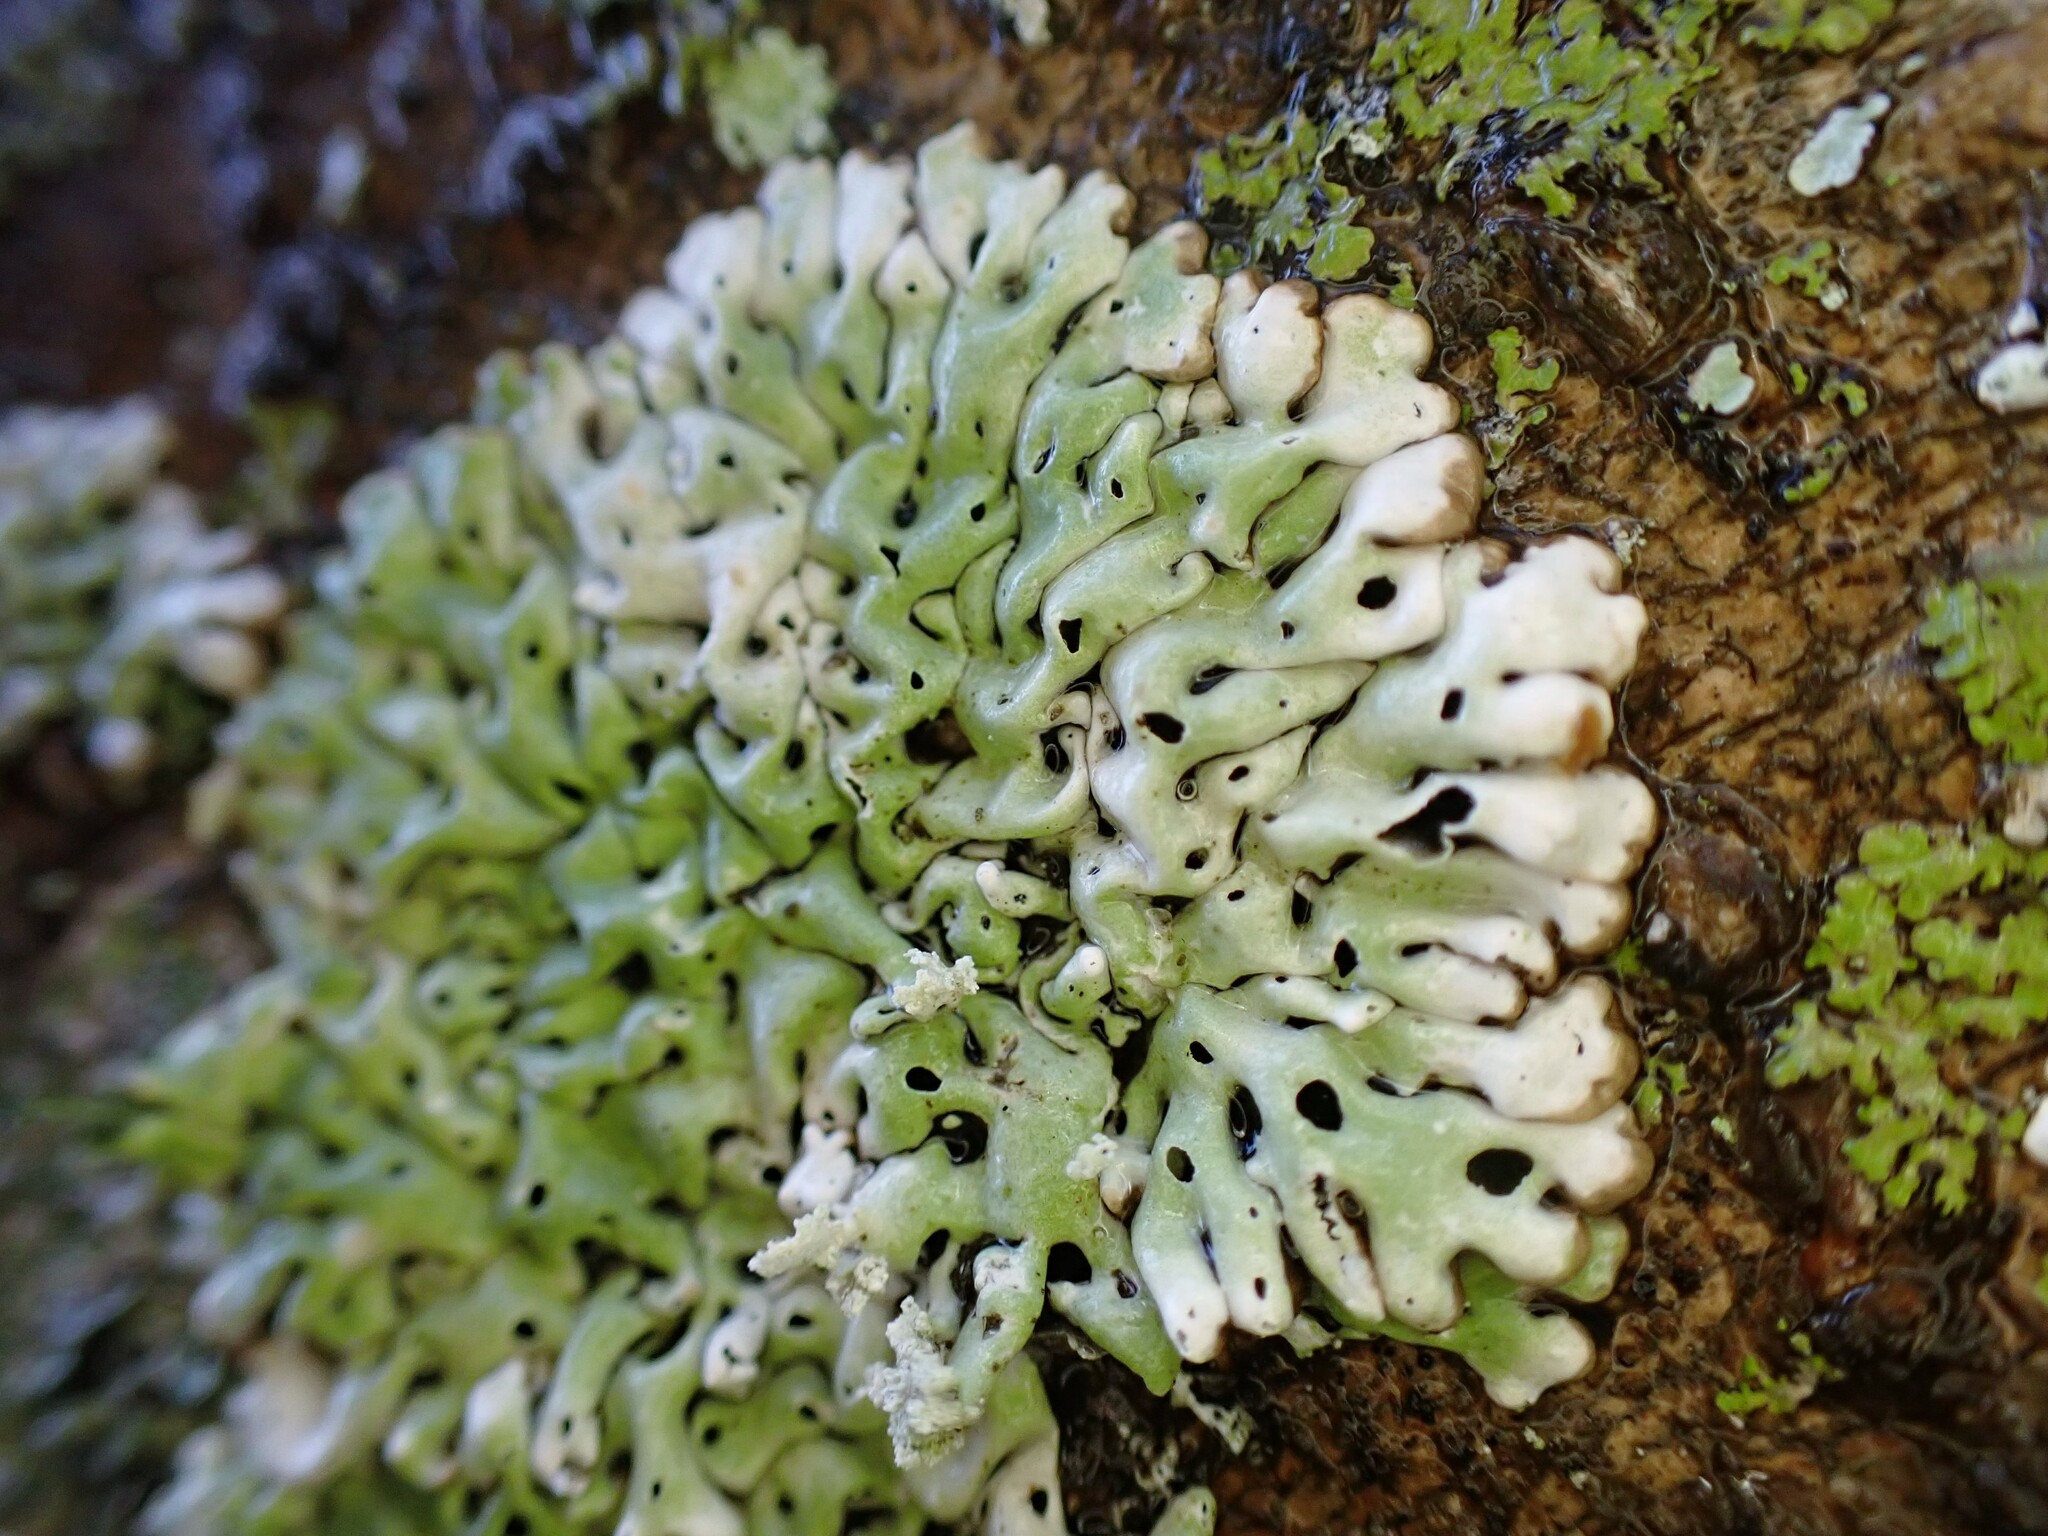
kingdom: Fungi
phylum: Ascomycota
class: Lecanoromycetes
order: Lecanorales
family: Parmeliaceae
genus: Menegazzia
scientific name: Menegazzia subsimilis
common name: Tree flute lichen
